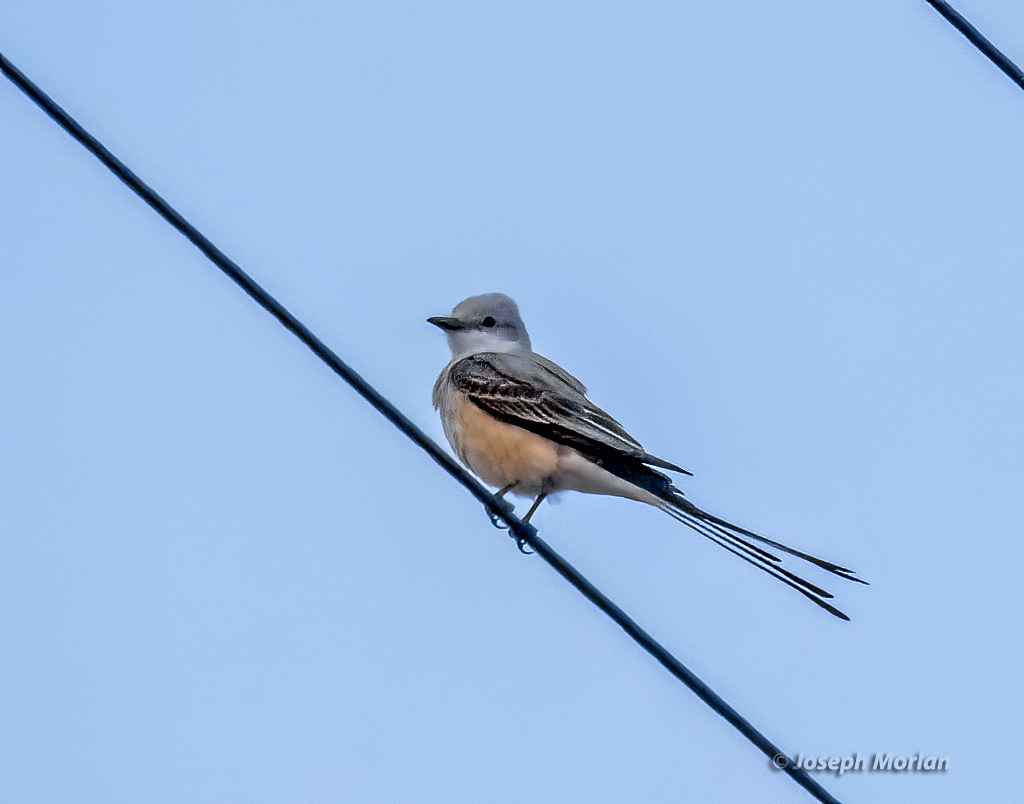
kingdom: Animalia
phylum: Chordata
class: Aves
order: Passeriformes
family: Tyrannidae
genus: Tyrannus
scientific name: Tyrannus forficatus
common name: Scissor-tailed flycatcher
